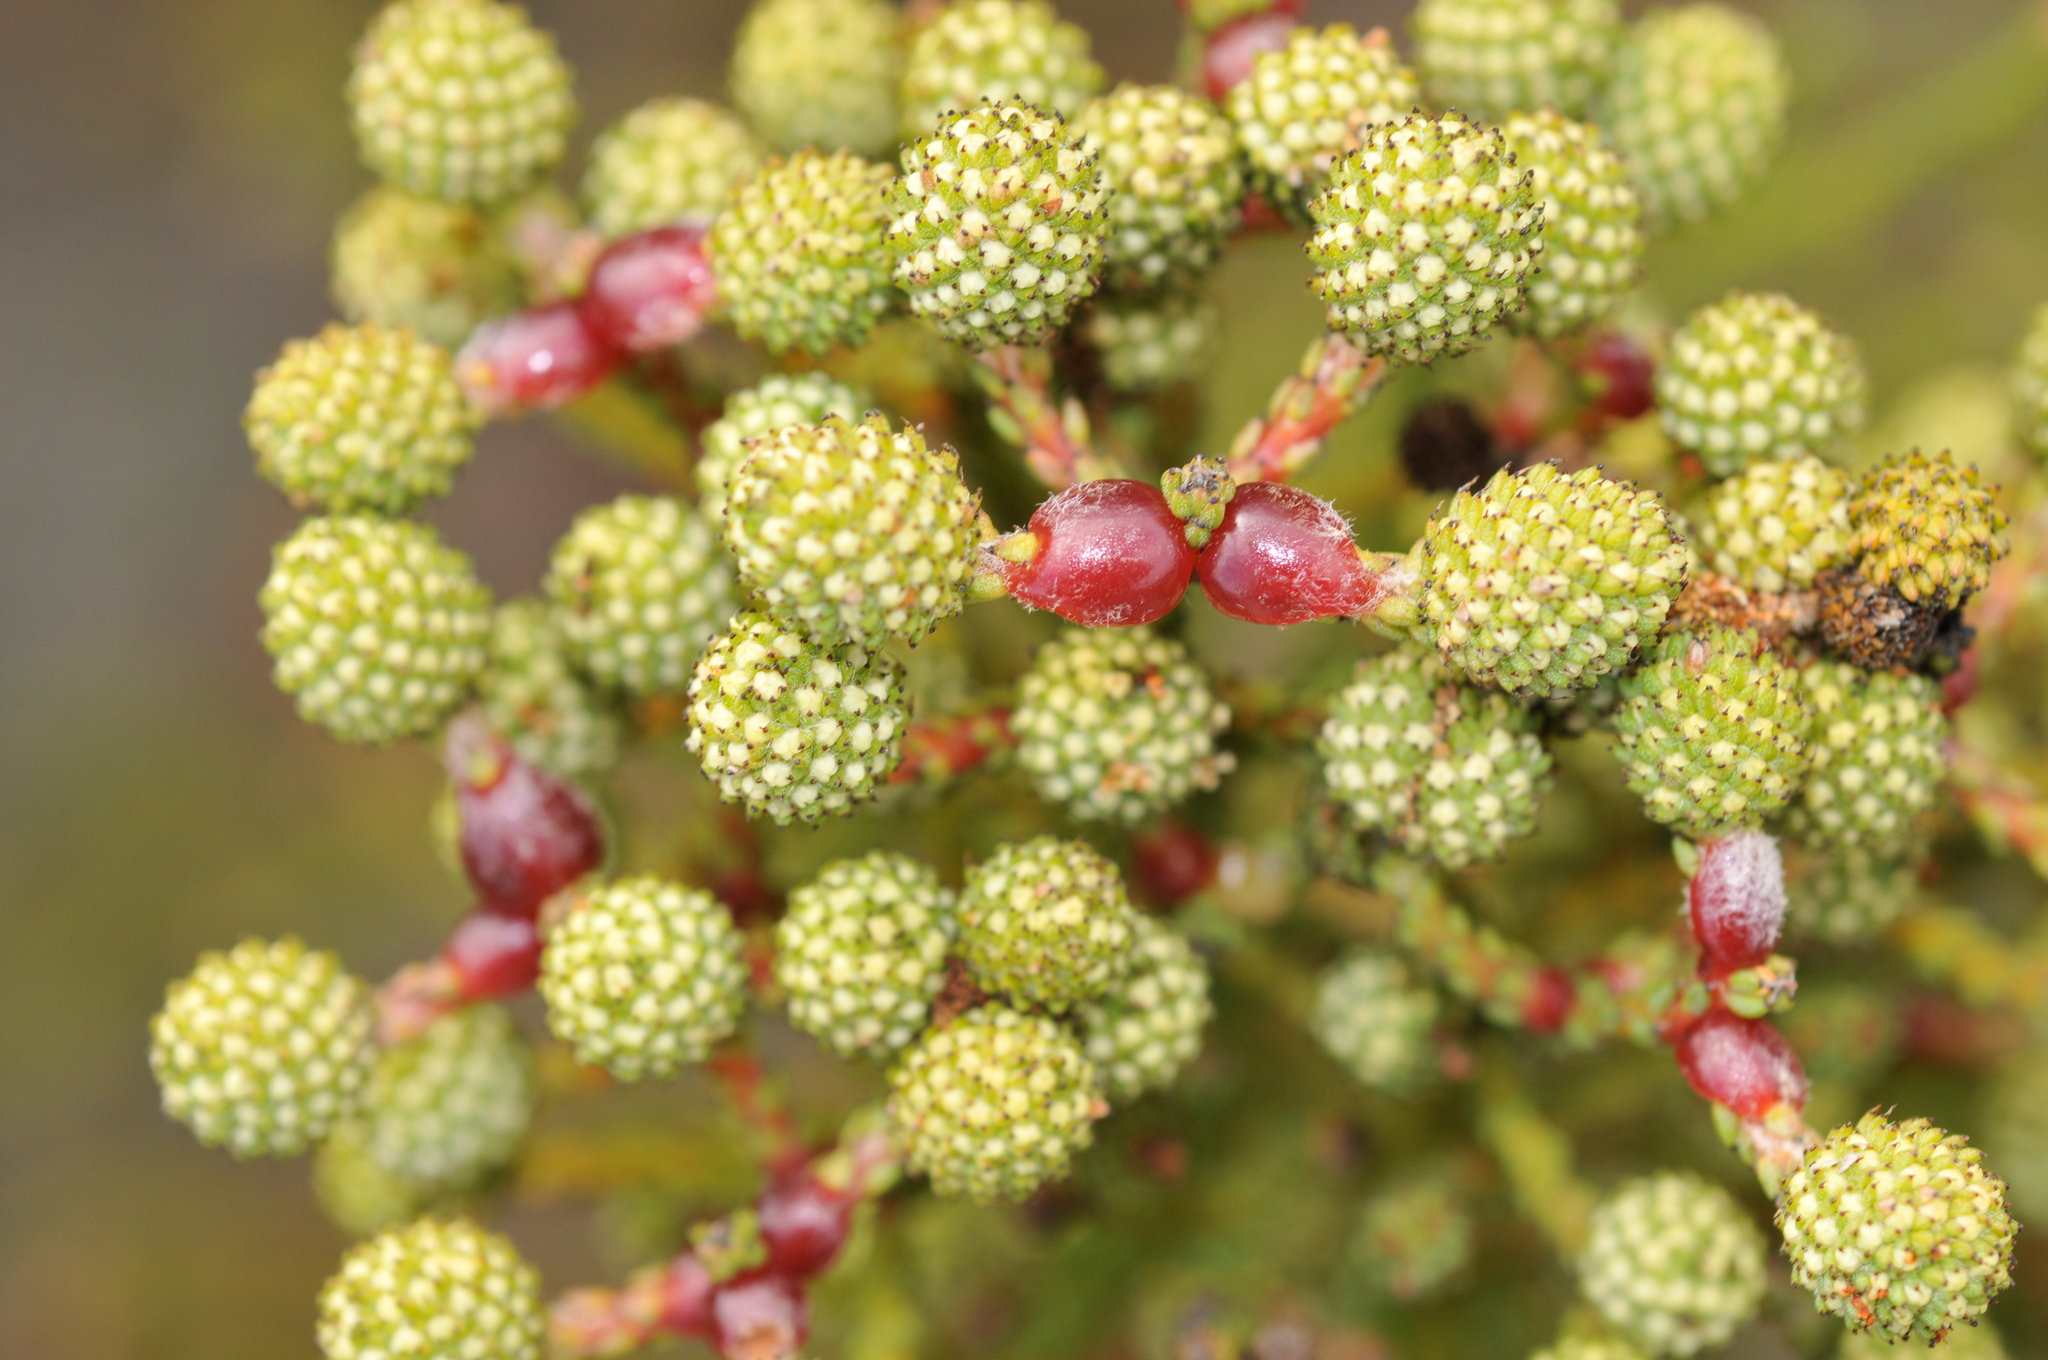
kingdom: Plantae
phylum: Tracheophyta
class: Magnoliopsida
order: Bruniales
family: Bruniaceae
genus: Berzelia
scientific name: Berzelia abrotanoides
